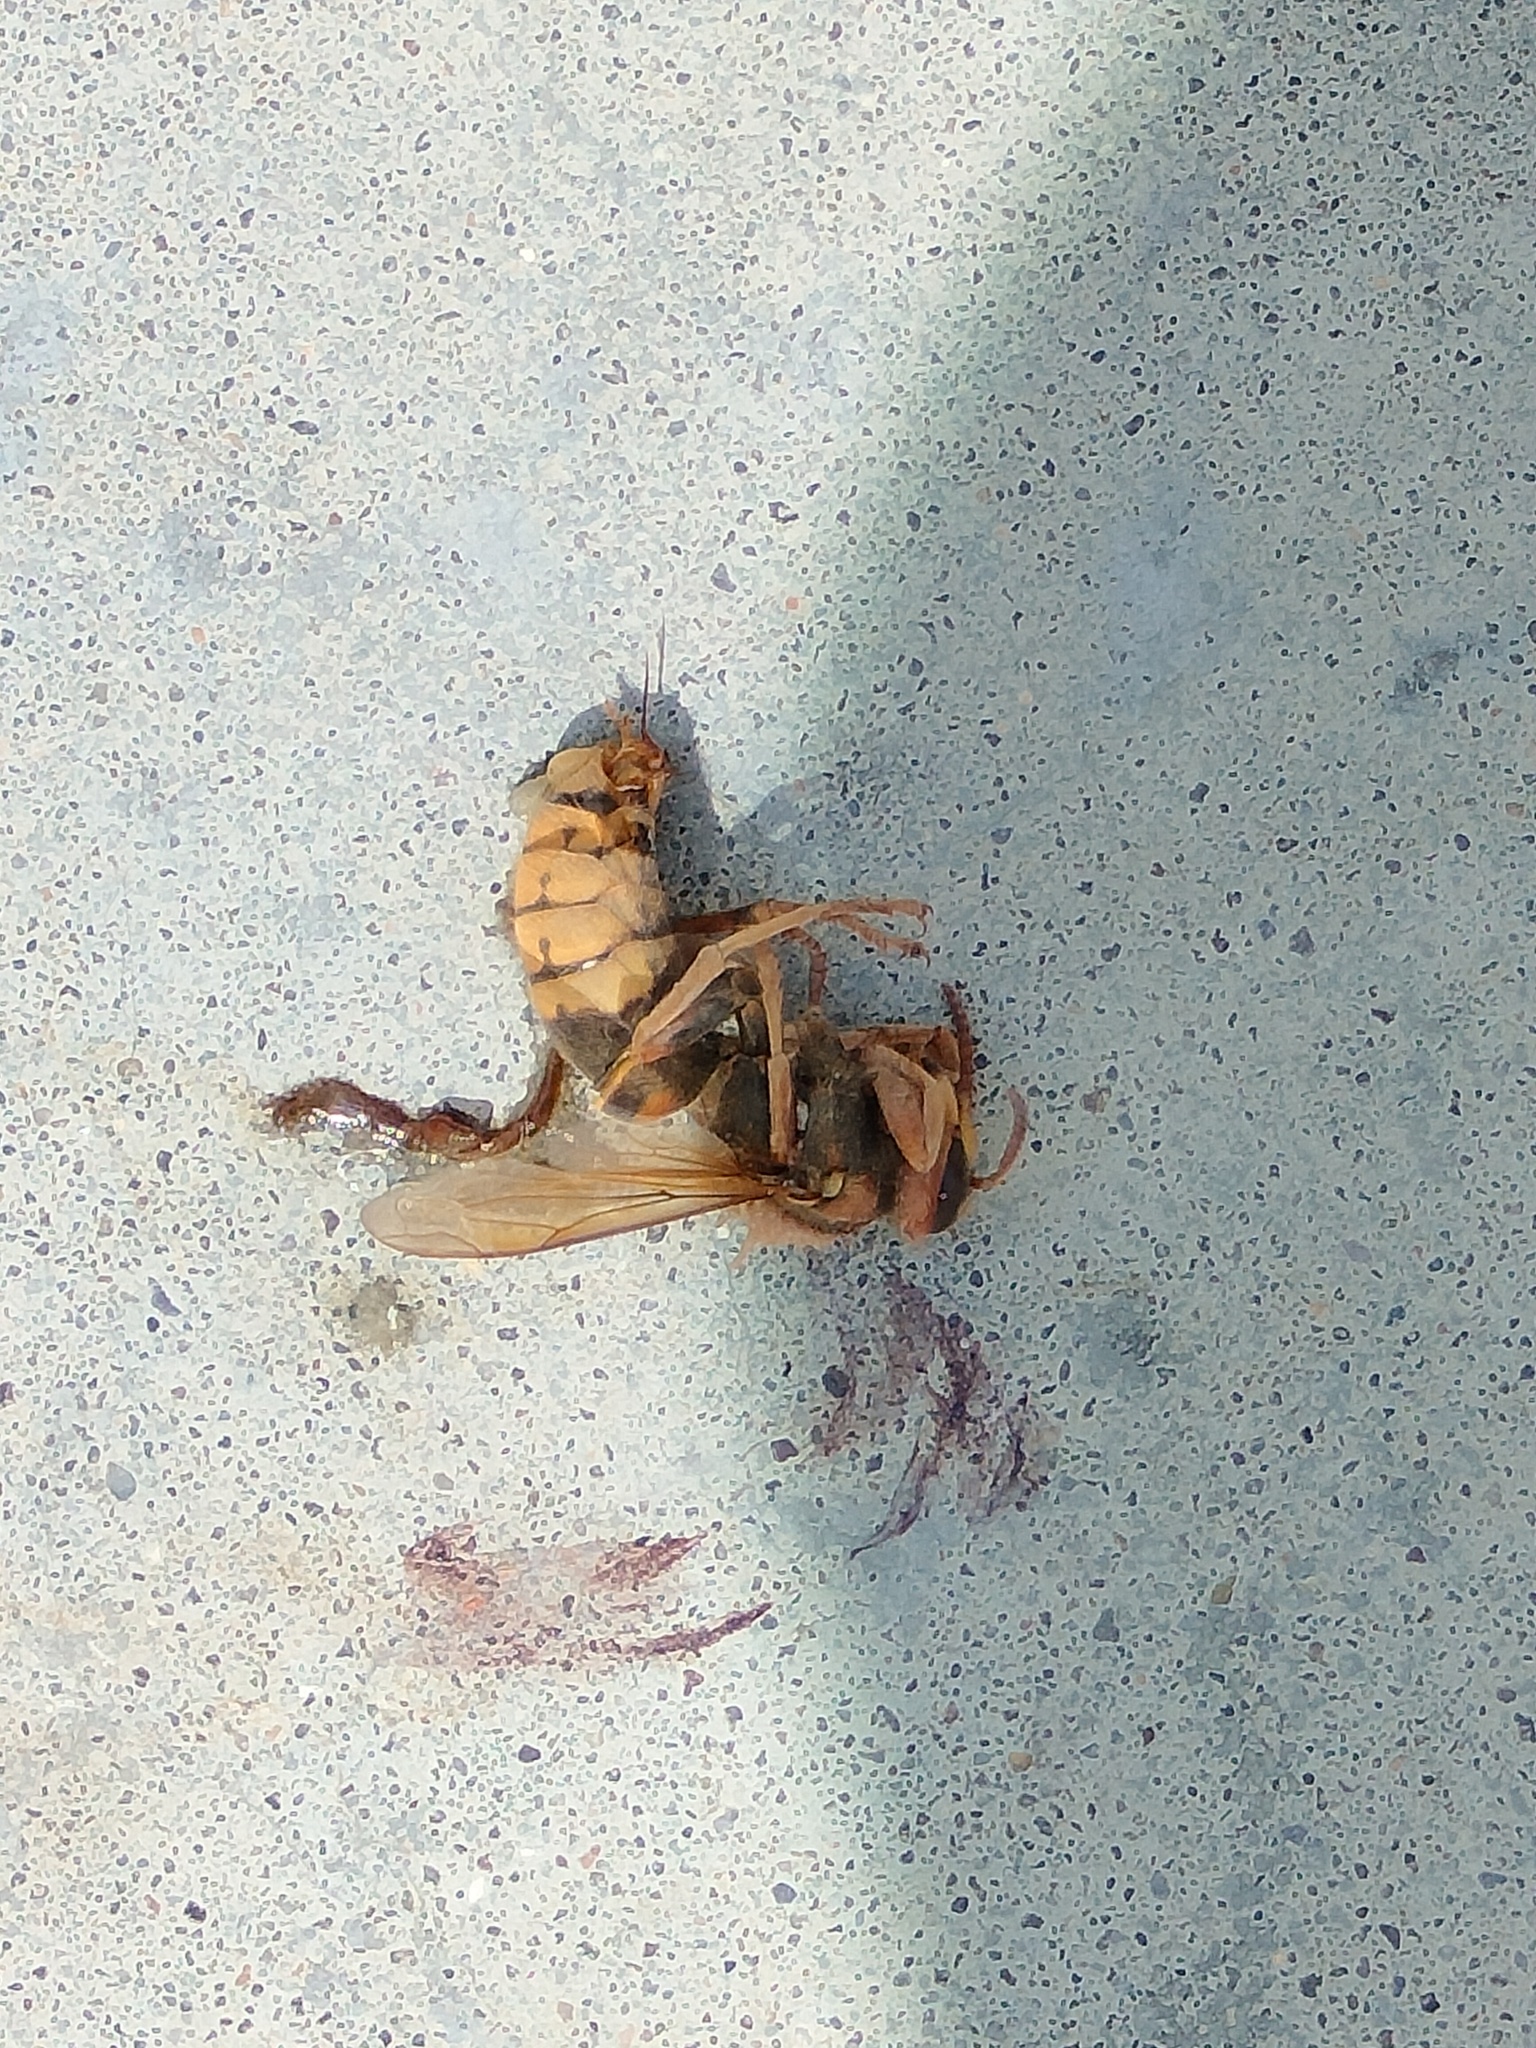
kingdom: Animalia
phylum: Arthropoda
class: Insecta
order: Hymenoptera
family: Vespidae
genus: Vespa
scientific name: Vespa crabro
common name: Hornet
